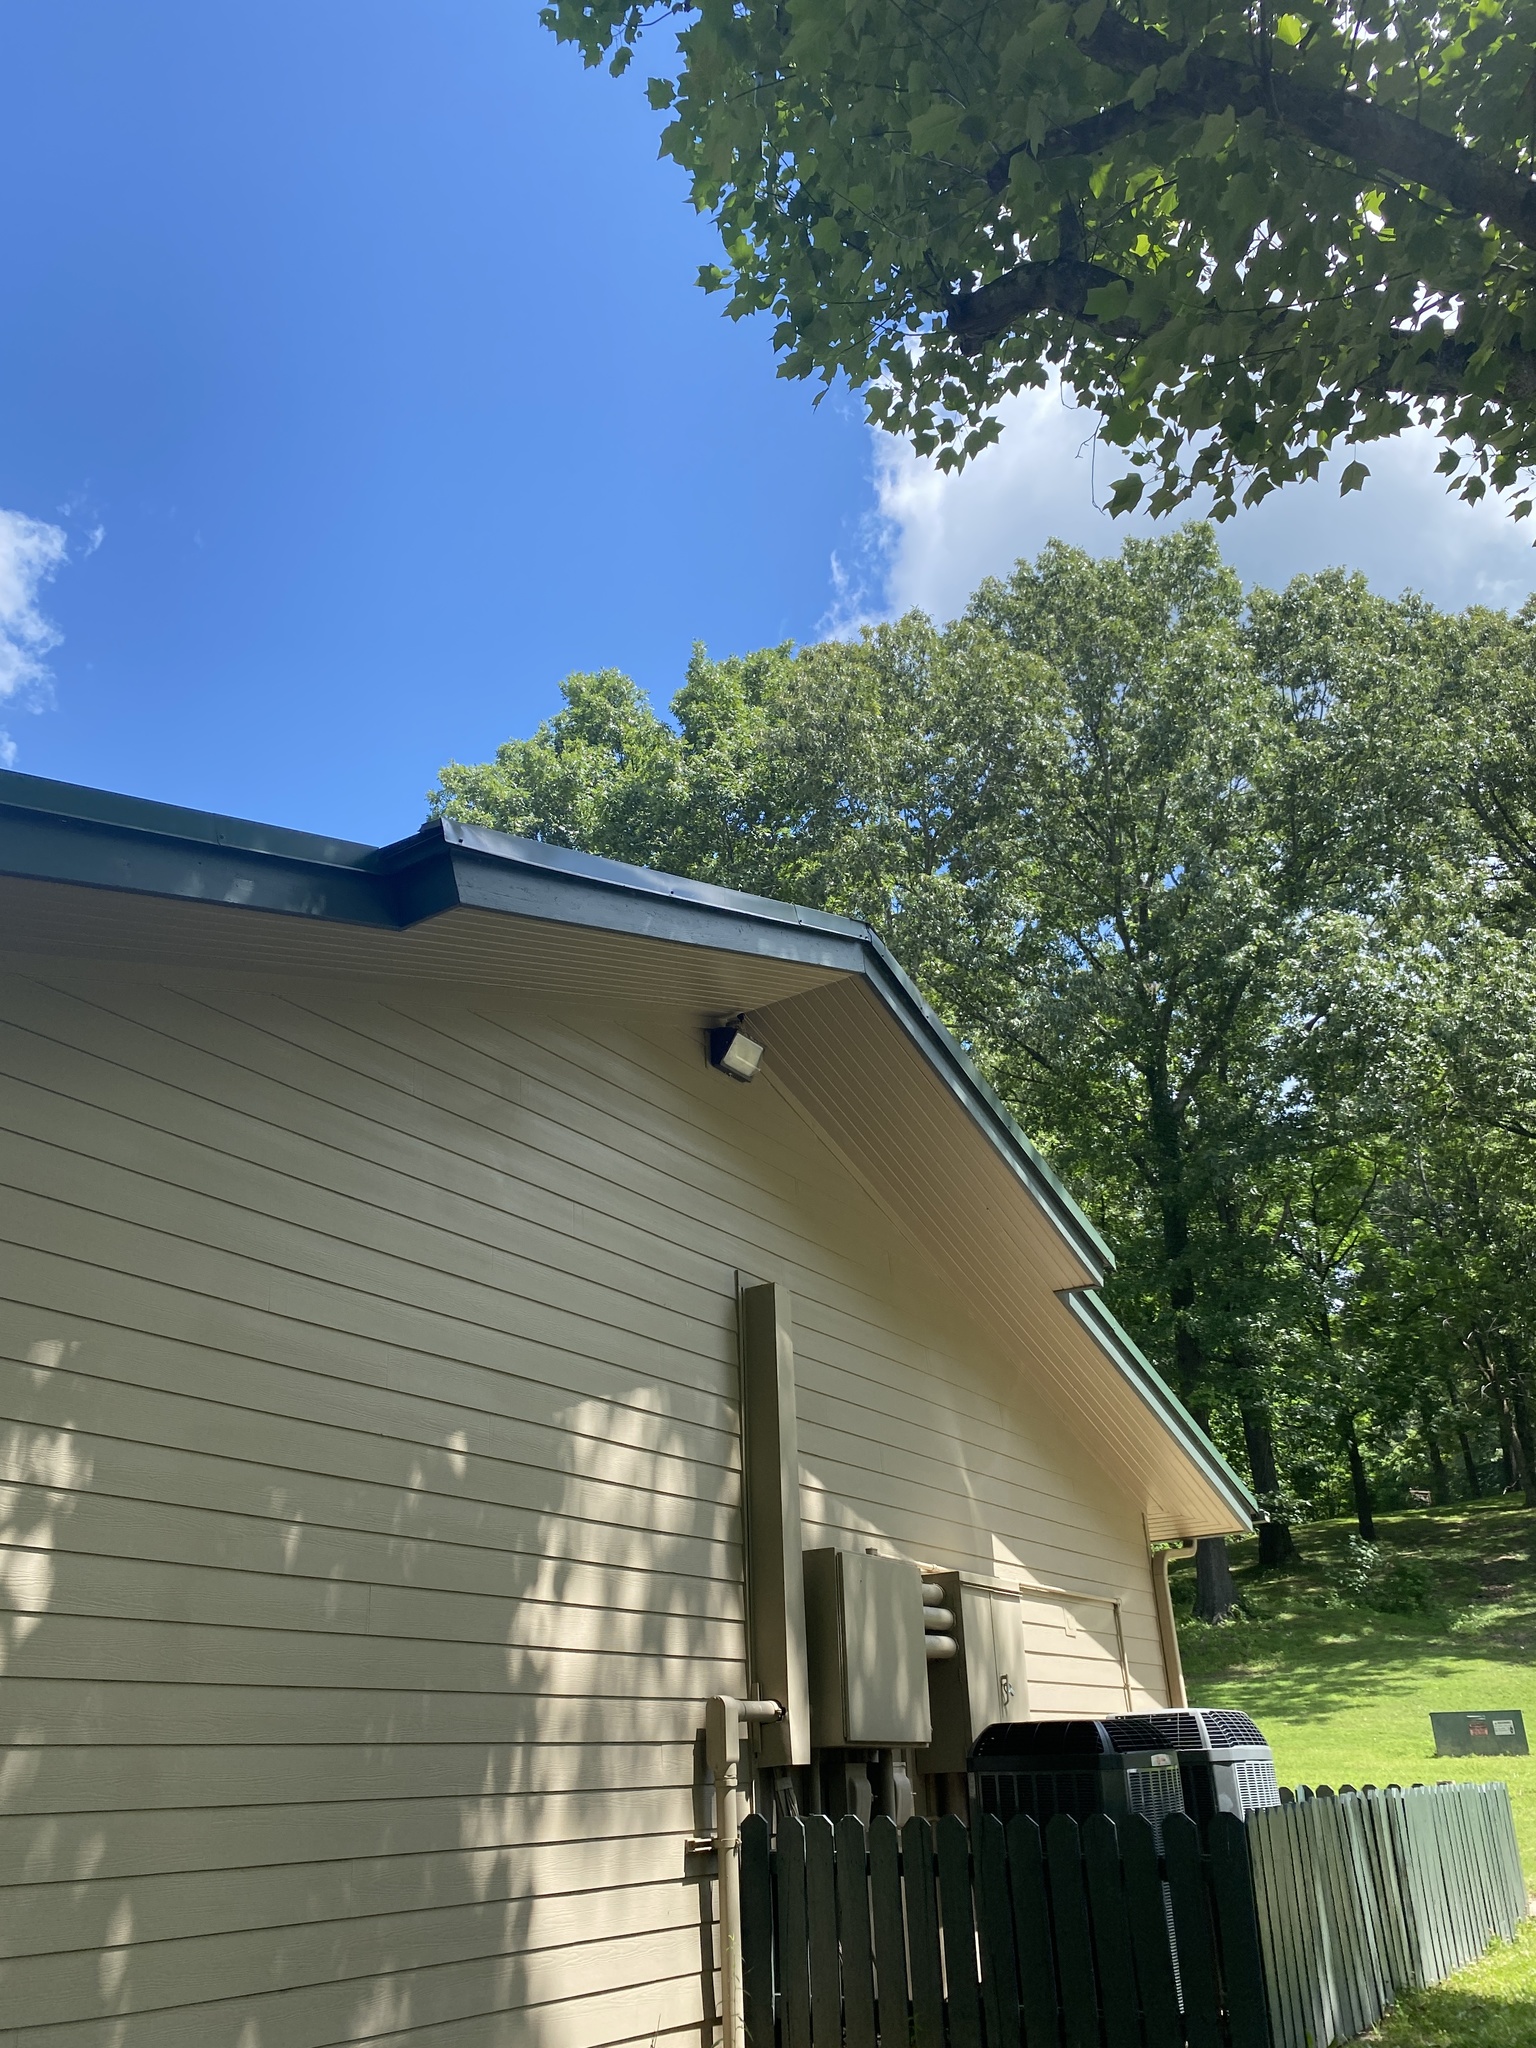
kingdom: Animalia
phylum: Chordata
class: Aves
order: Passeriformes
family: Hirundinidae
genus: Hirundo
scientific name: Hirundo rustica
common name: Barn swallow
